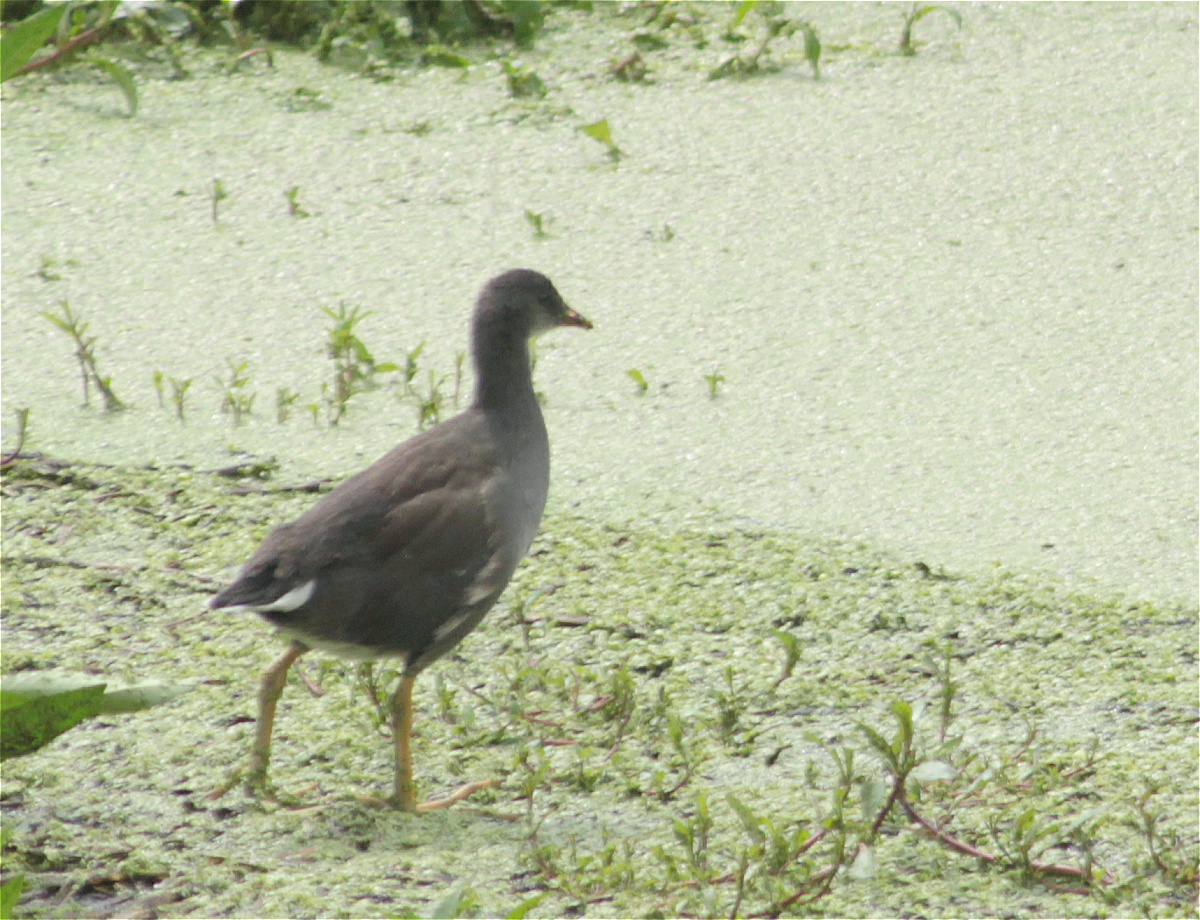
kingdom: Animalia
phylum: Chordata
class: Aves
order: Gruiformes
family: Rallidae
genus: Gallinula
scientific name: Gallinula chloropus
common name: Common moorhen
